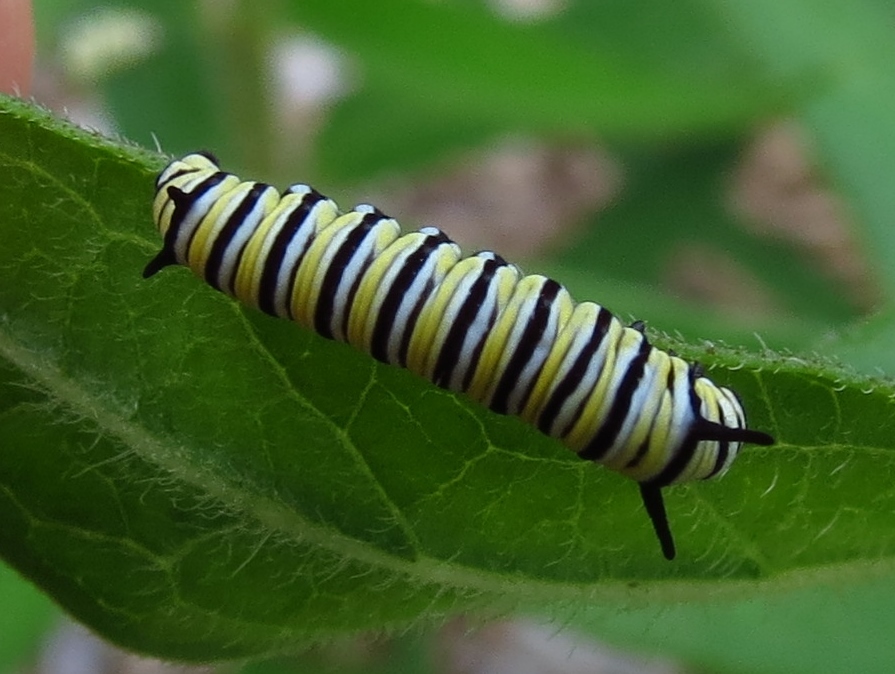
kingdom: Animalia
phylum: Arthropoda
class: Insecta
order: Lepidoptera
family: Nymphalidae
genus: Danaus
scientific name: Danaus plexippus
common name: Monarch
